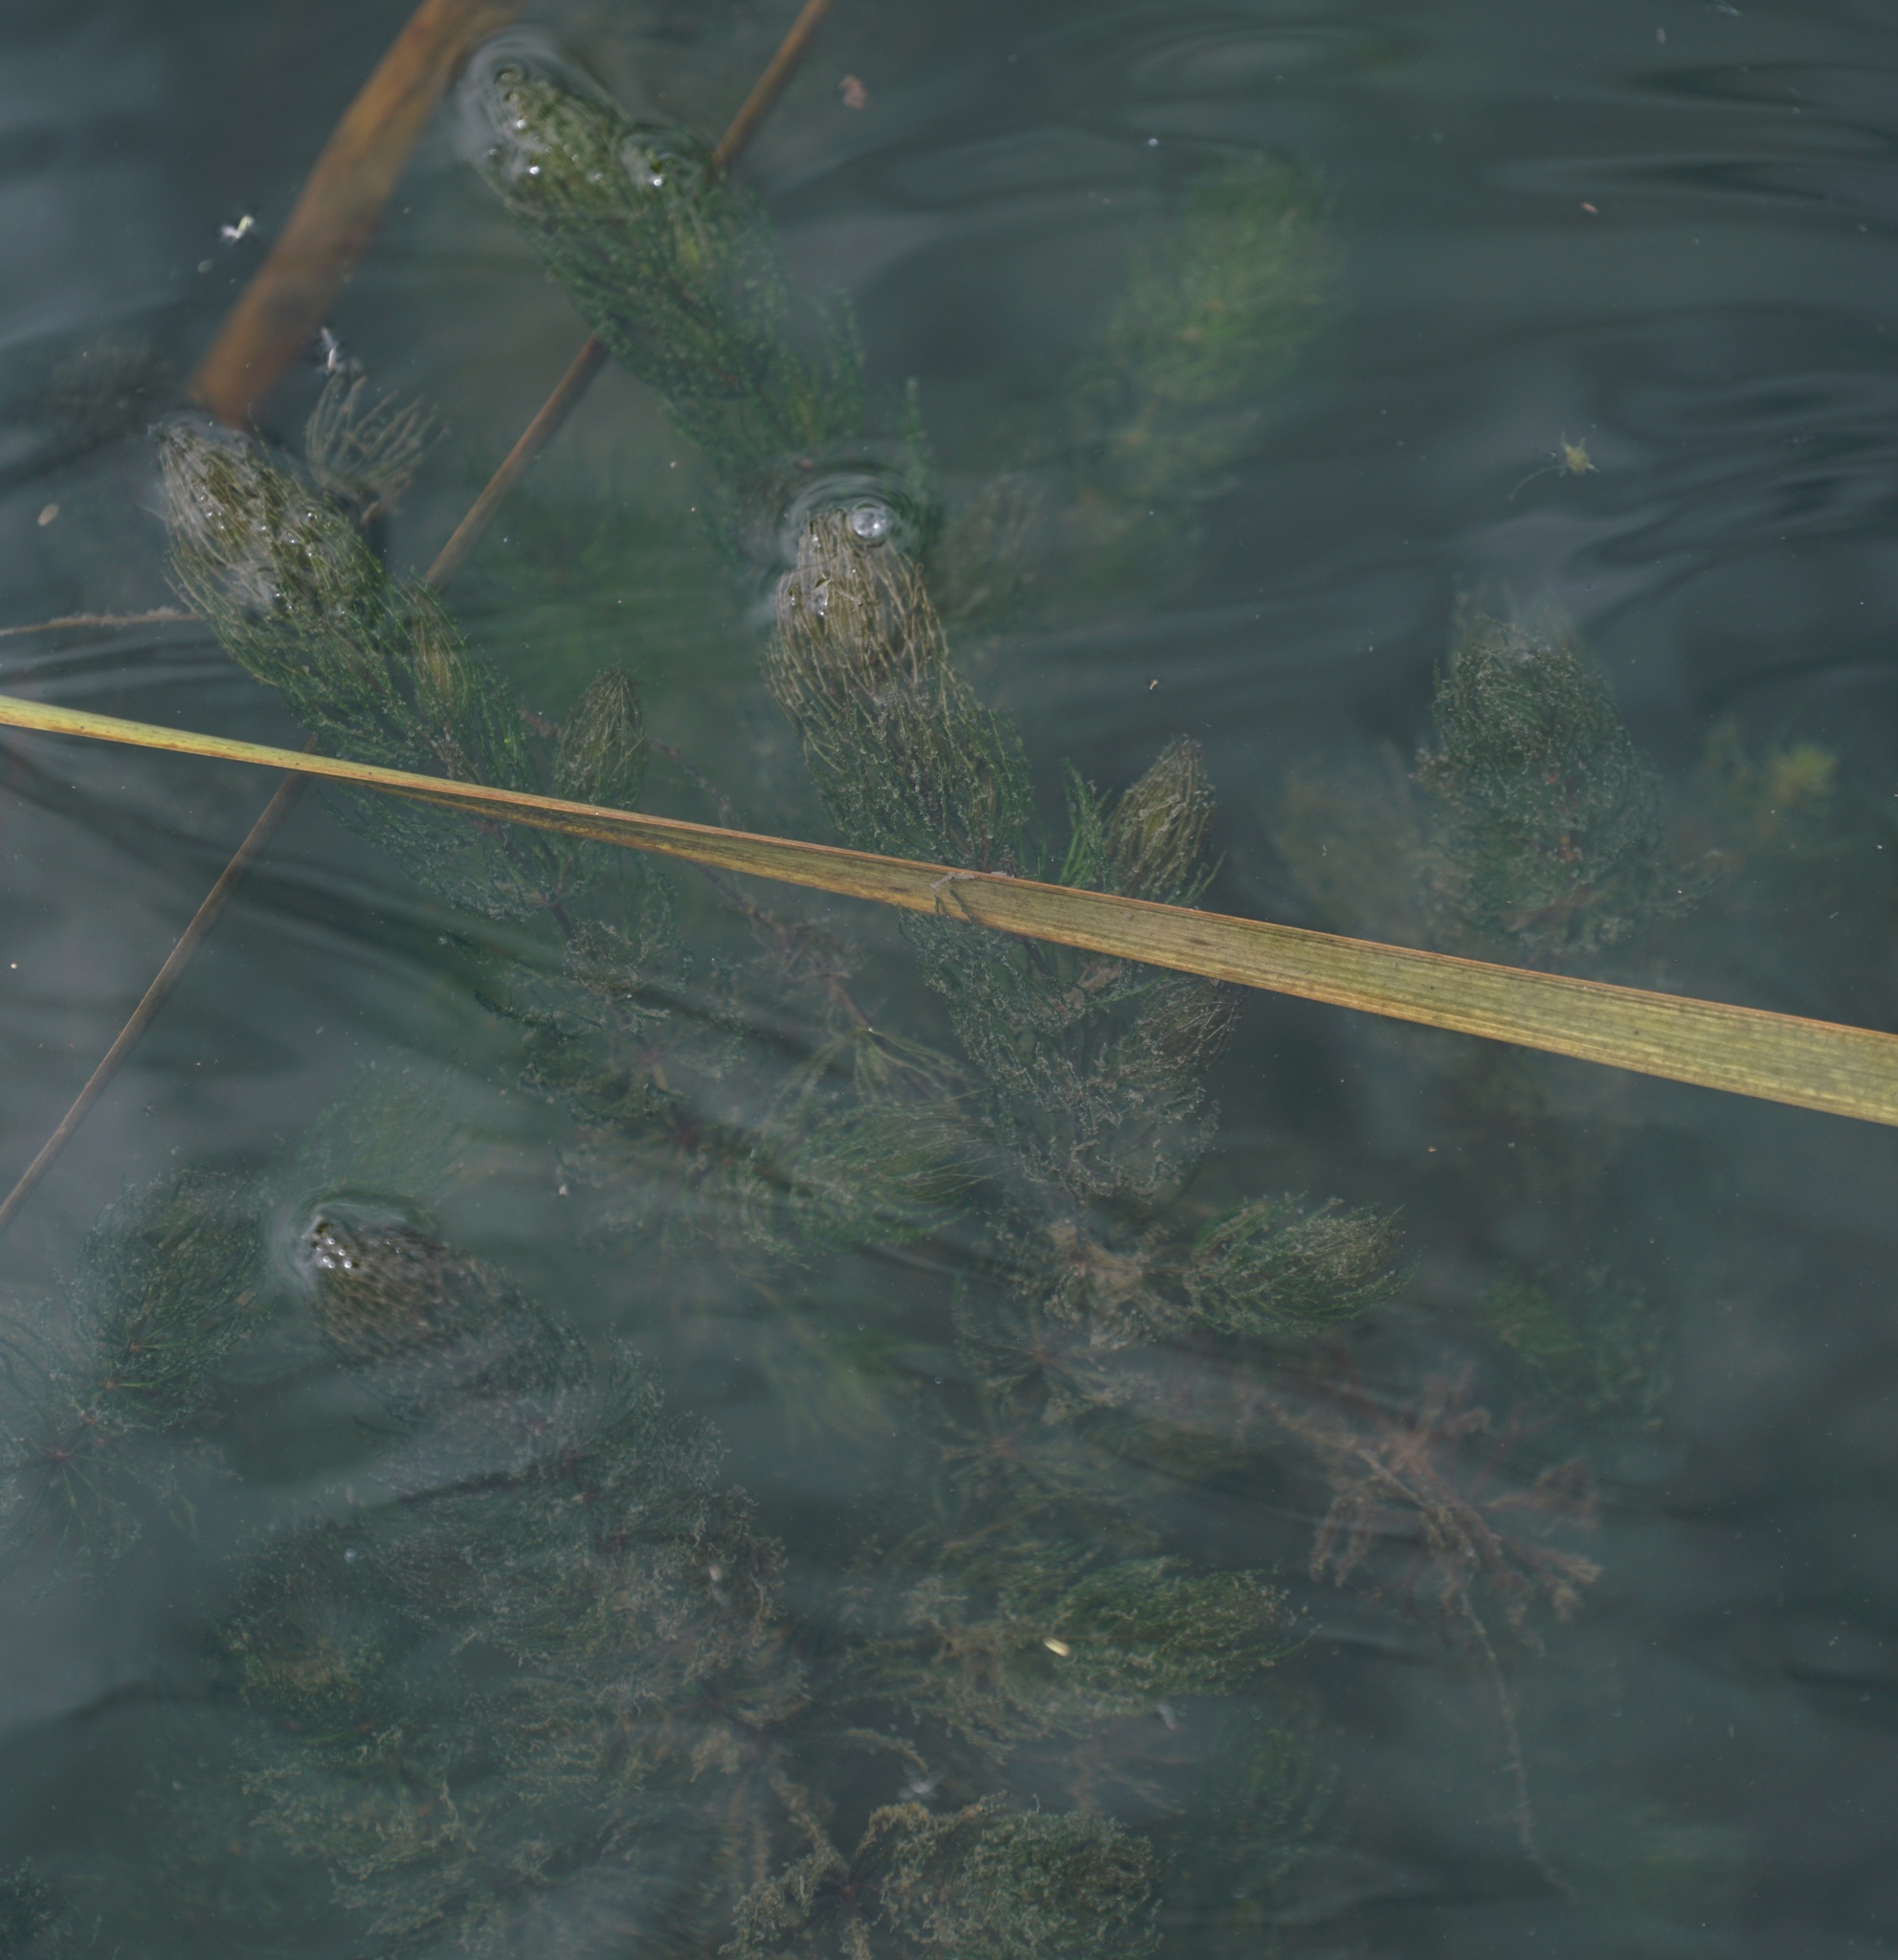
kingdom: Plantae
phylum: Tracheophyta
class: Magnoliopsida
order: Ceratophyllales
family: Ceratophyllaceae
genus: Ceratophyllum
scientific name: Ceratophyllum demersum
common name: Rigid hornwort
